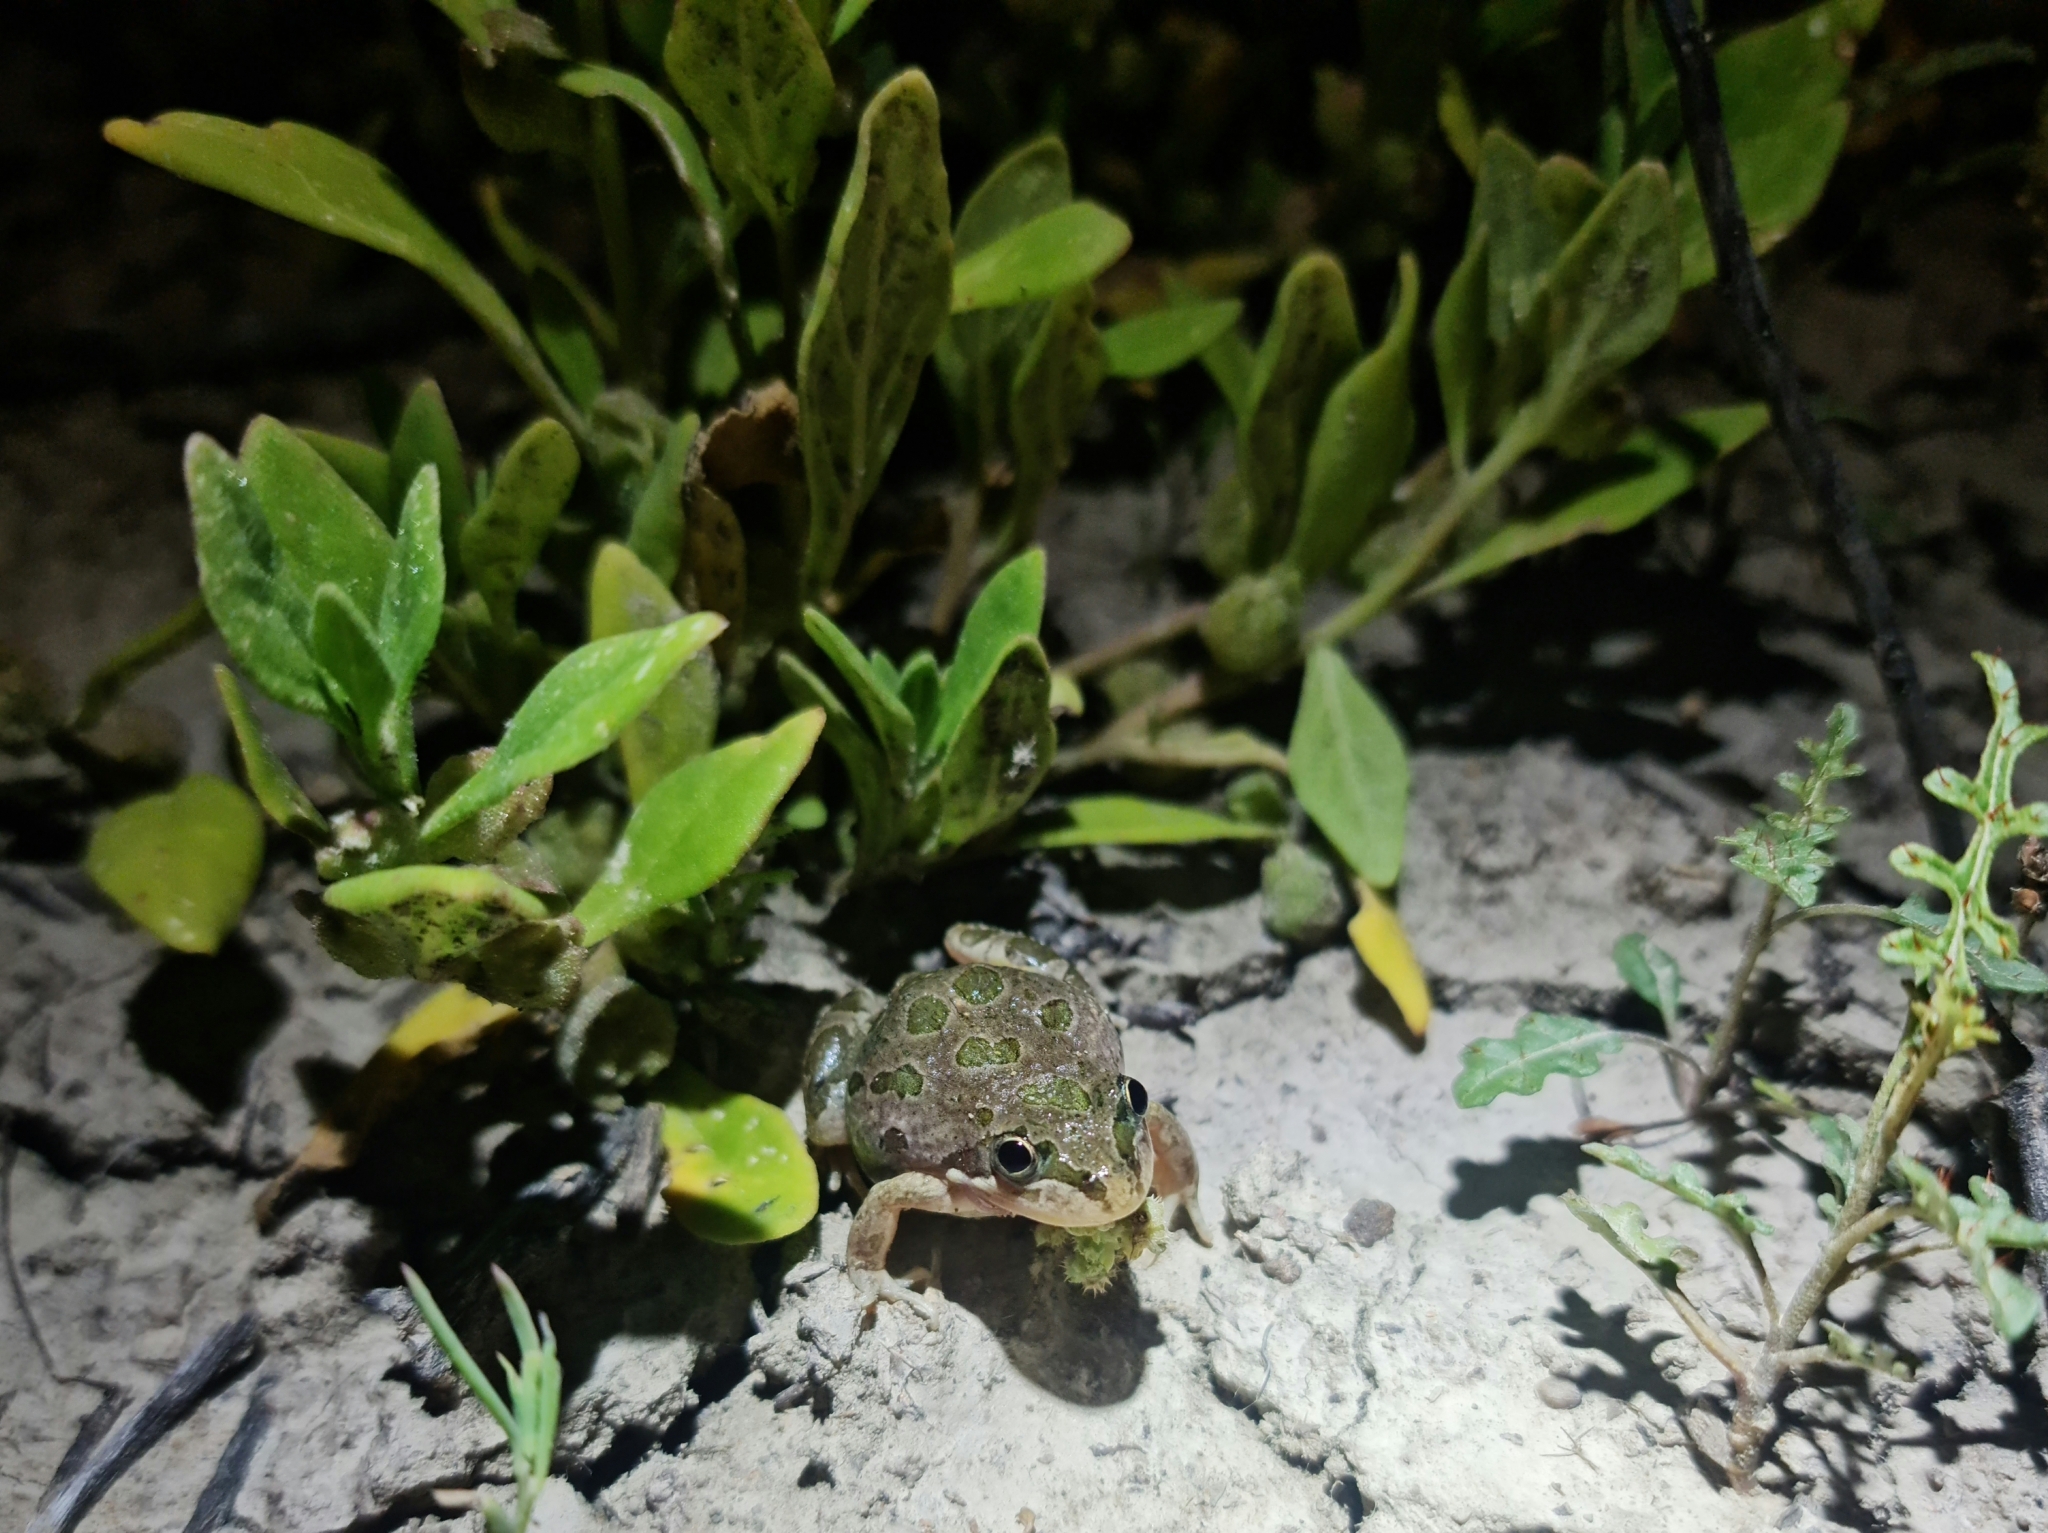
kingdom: Animalia
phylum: Chordata
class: Amphibia
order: Anura
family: Limnodynastidae
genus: Limnodynastes
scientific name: Limnodynastes tasmaniensis
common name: Spotted marsh frog
